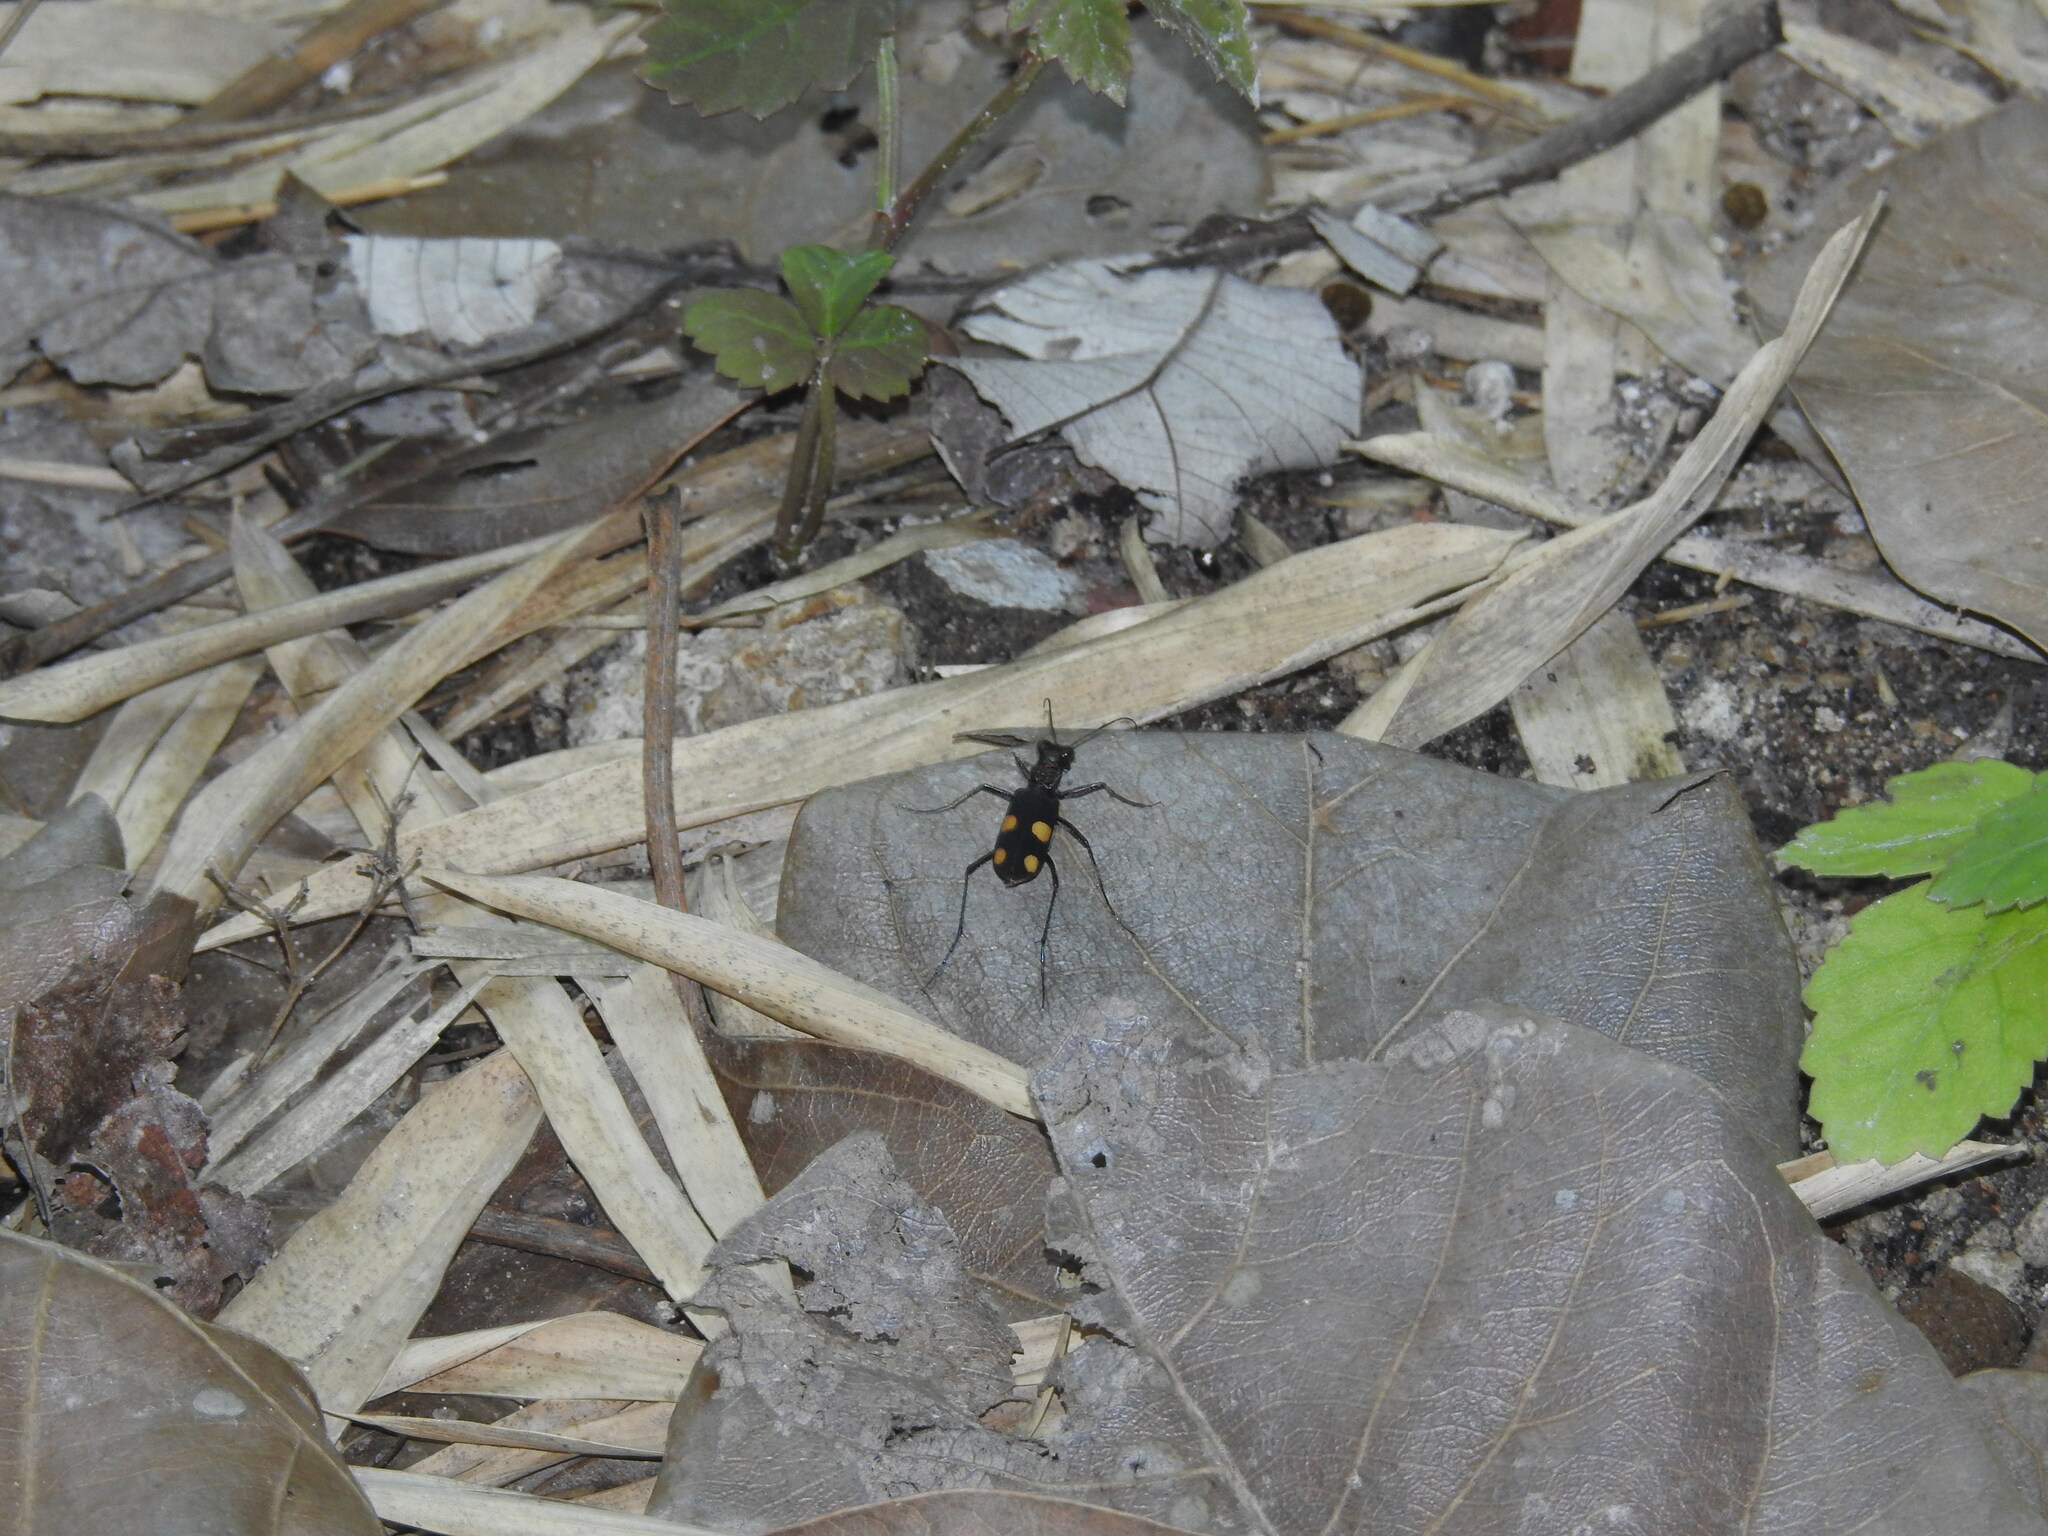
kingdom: Animalia
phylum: Arthropoda
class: Insecta
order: Coleoptera
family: Carabidae
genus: Cicindela
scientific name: Cicindela bicolor
